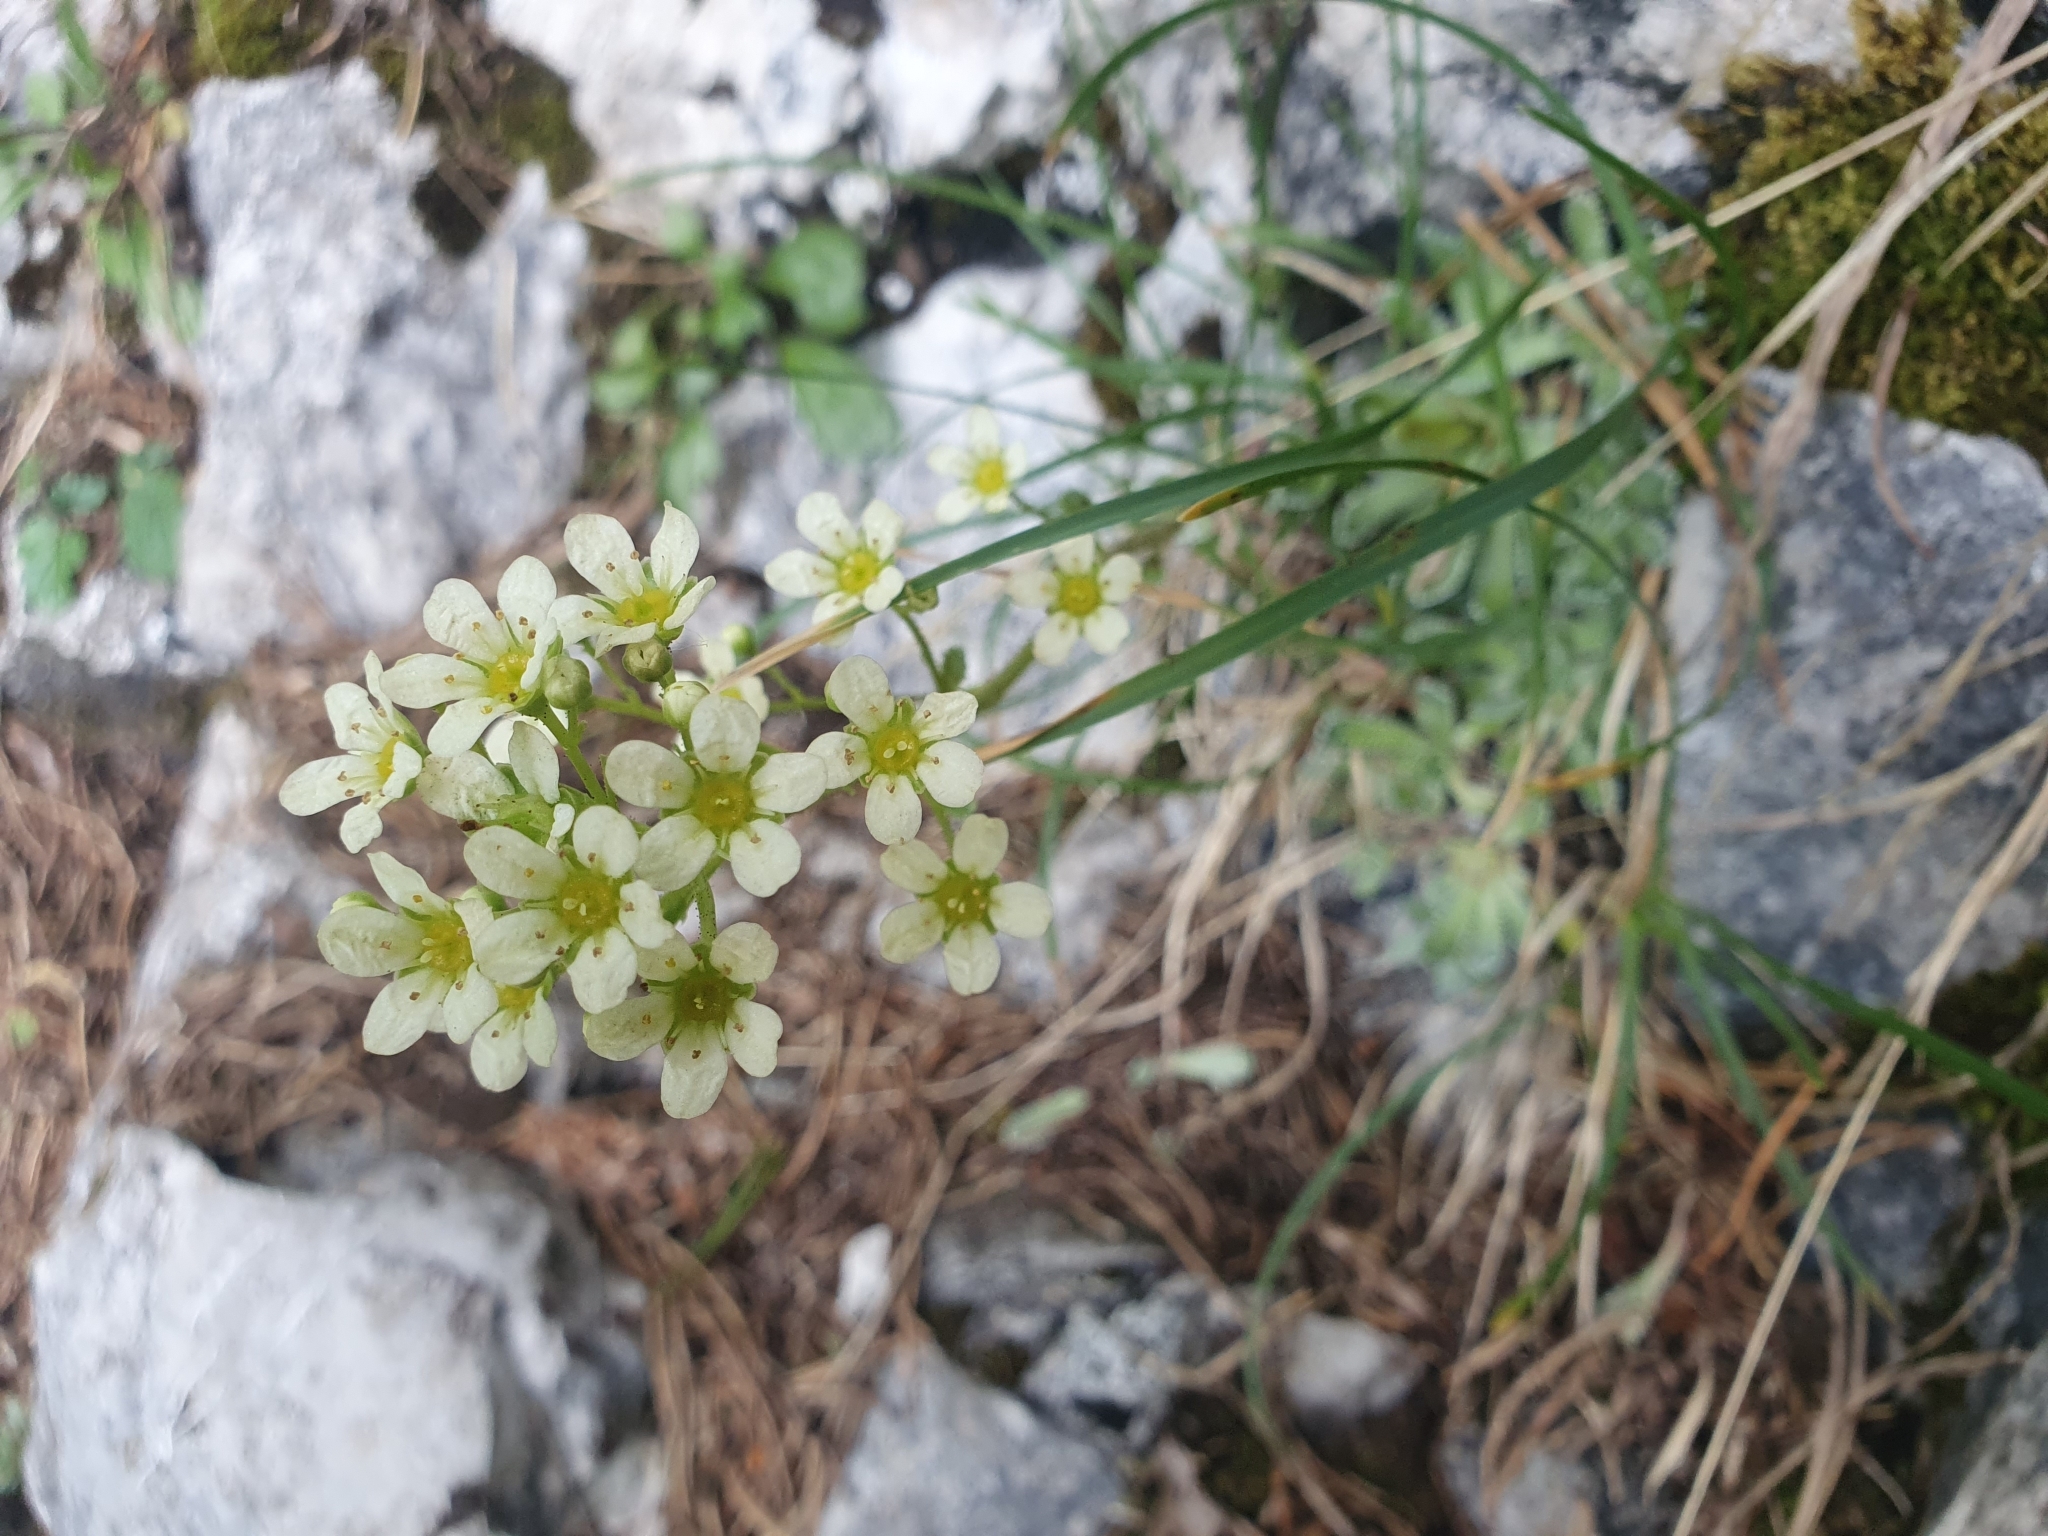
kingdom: Plantae
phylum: Tracheophyta
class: Magnoliopsida
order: Saxifragales
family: Saxifragaceae
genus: Saxifraga
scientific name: Saxifraga paniculata
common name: Livelong saxifrage
